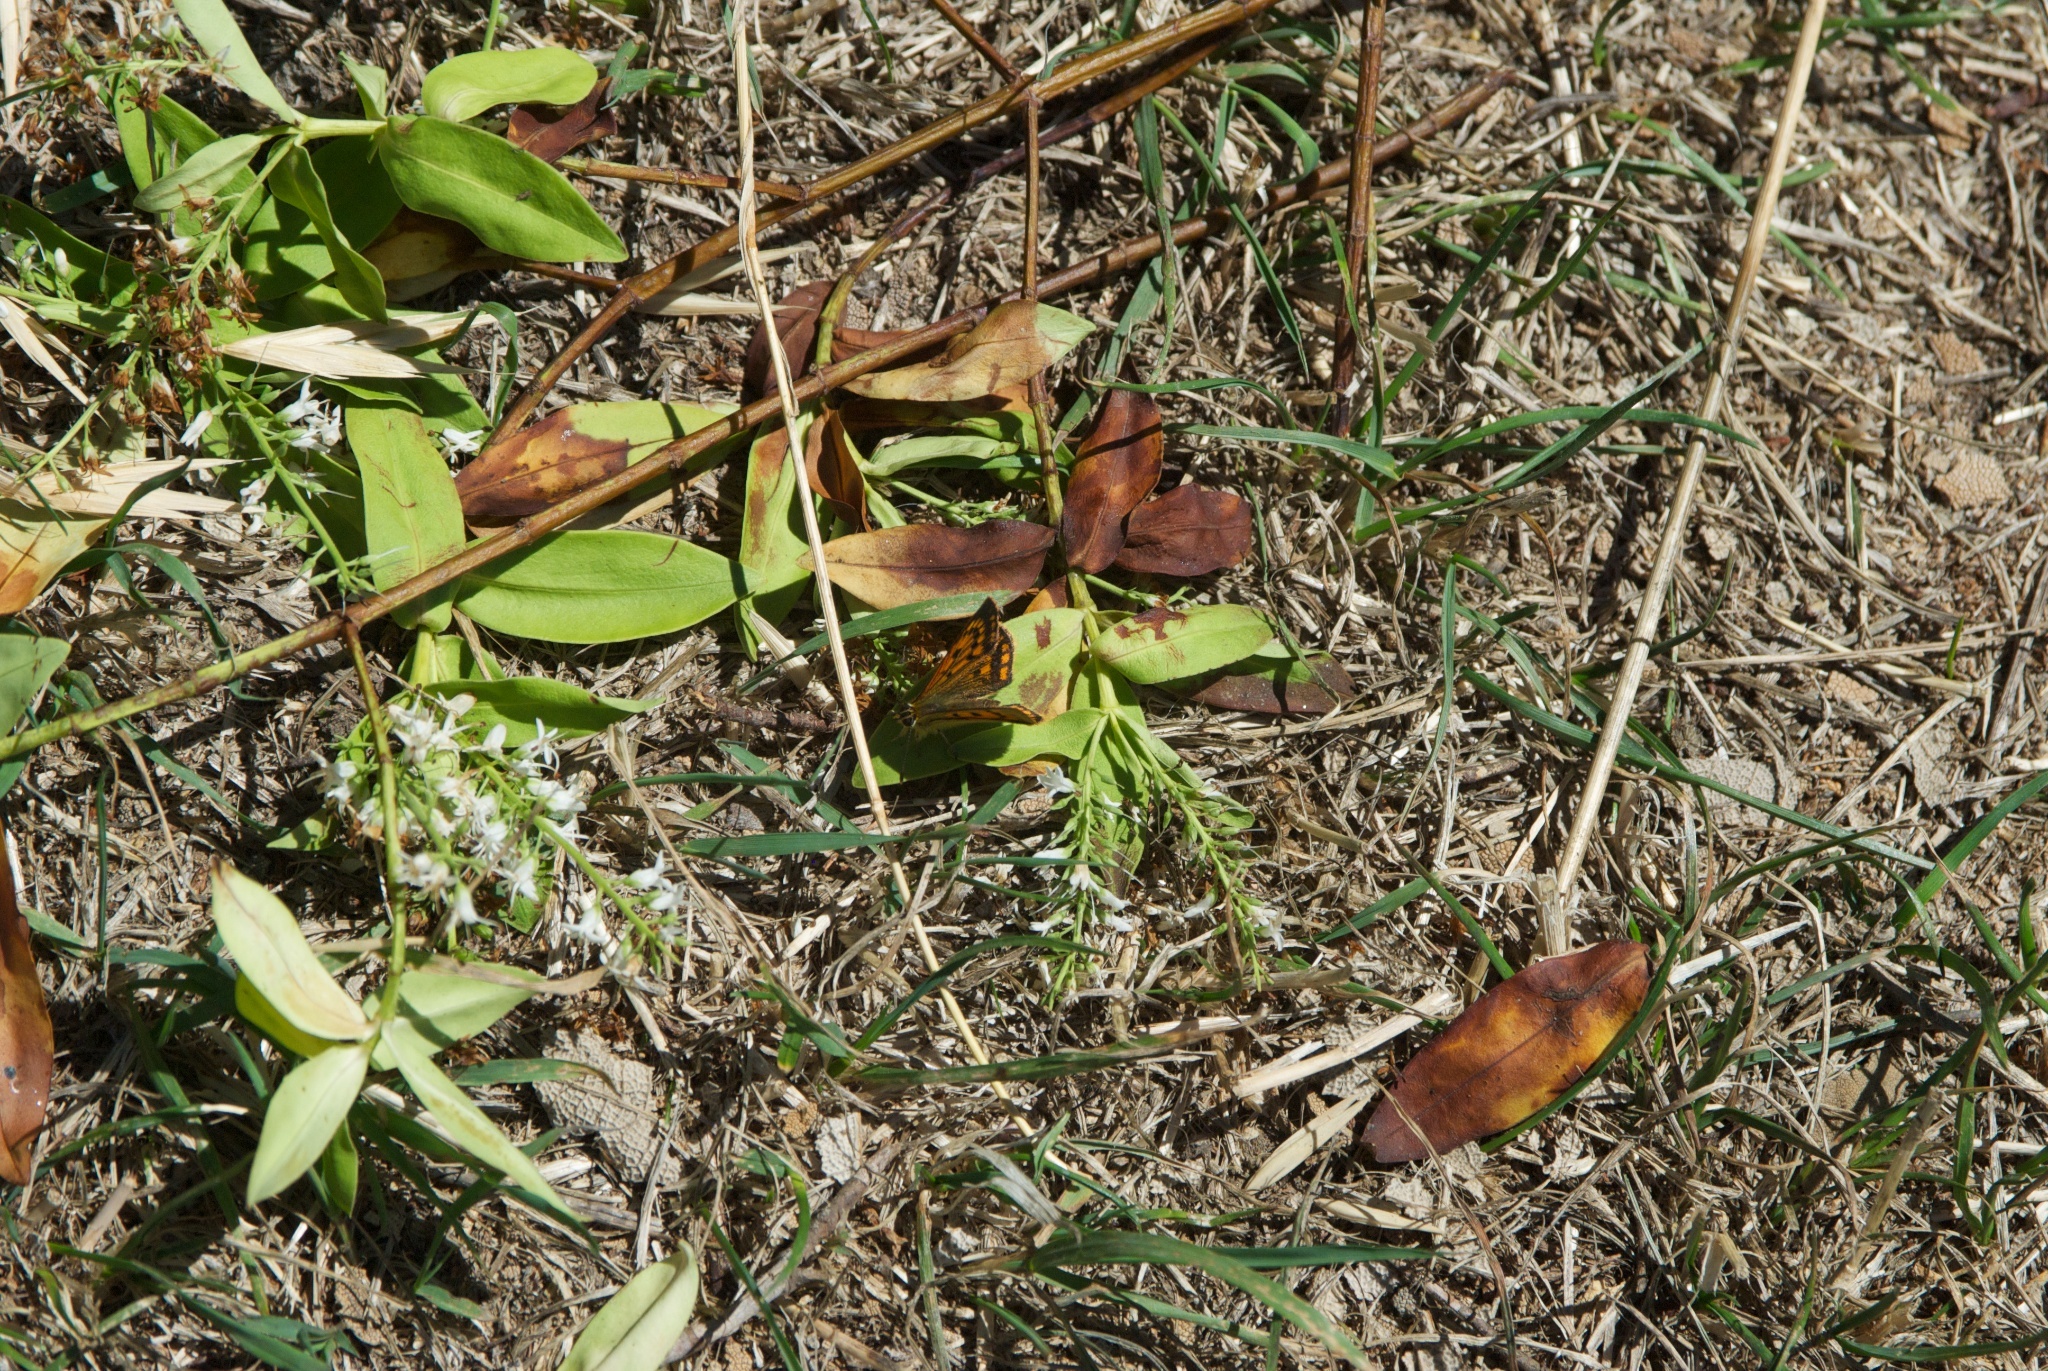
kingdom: Animalia
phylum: Arthropoda
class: Insecta
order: Lepidoptera
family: Lycaenidae
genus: Lycaena
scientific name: Lycaena salustius
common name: North island coastal copper
